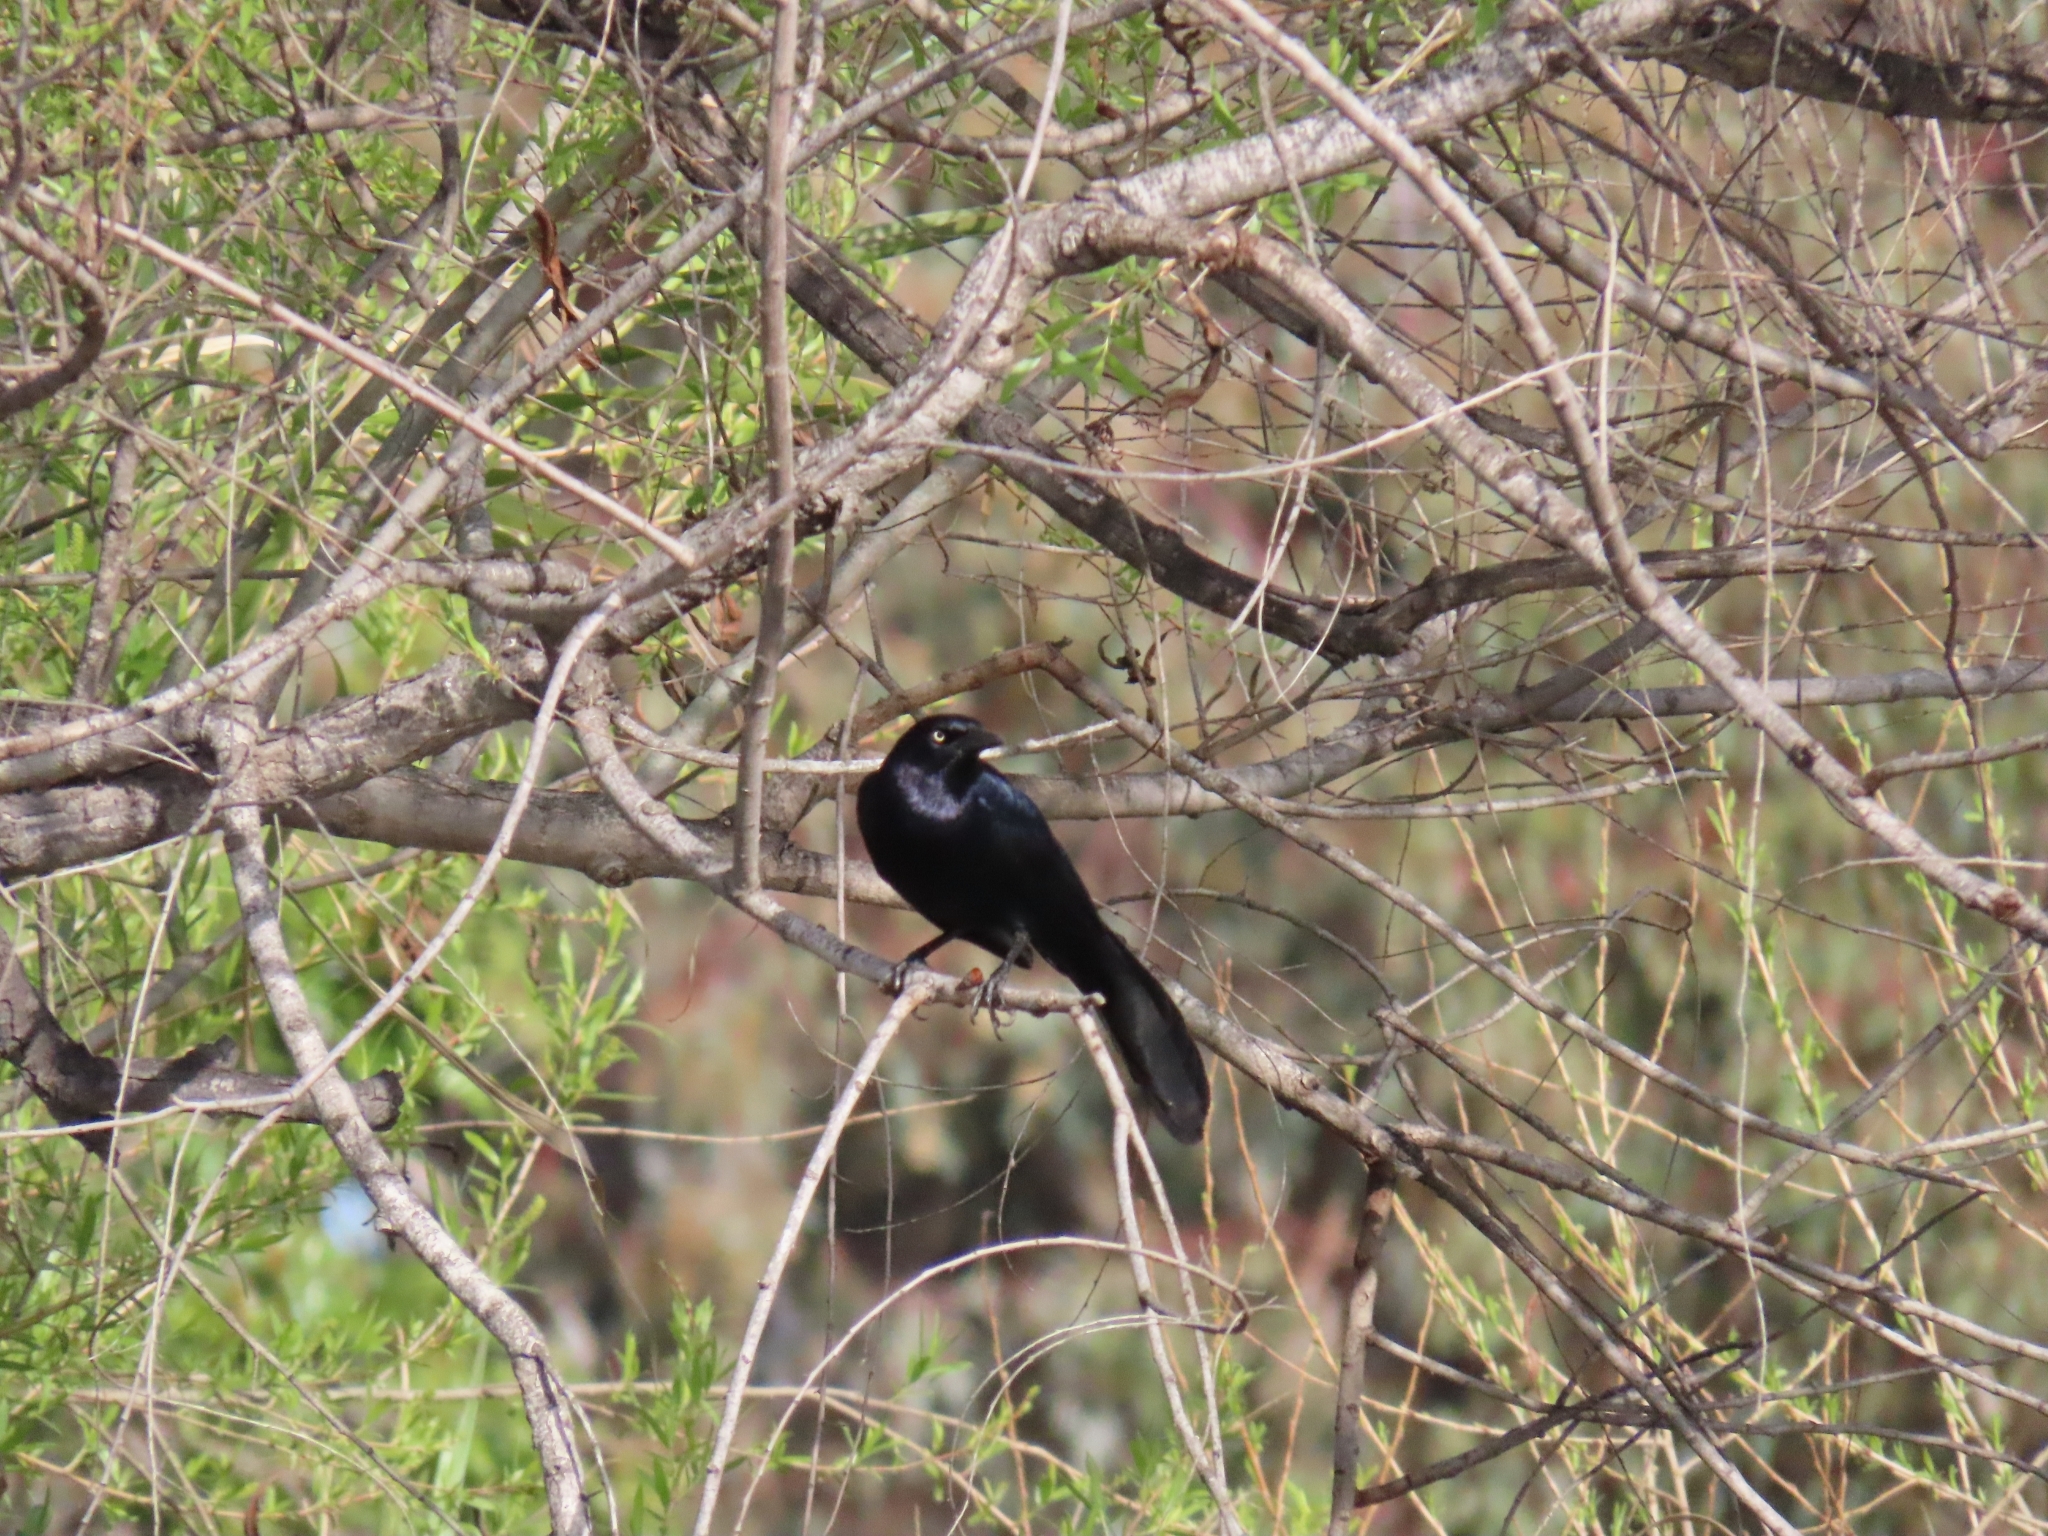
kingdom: Animalia
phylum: Chordata
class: Aves
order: Passeriformes
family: Icteridae
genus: Quiscalus
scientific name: Quiscalus mexicanus
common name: Great-tailed grackle
